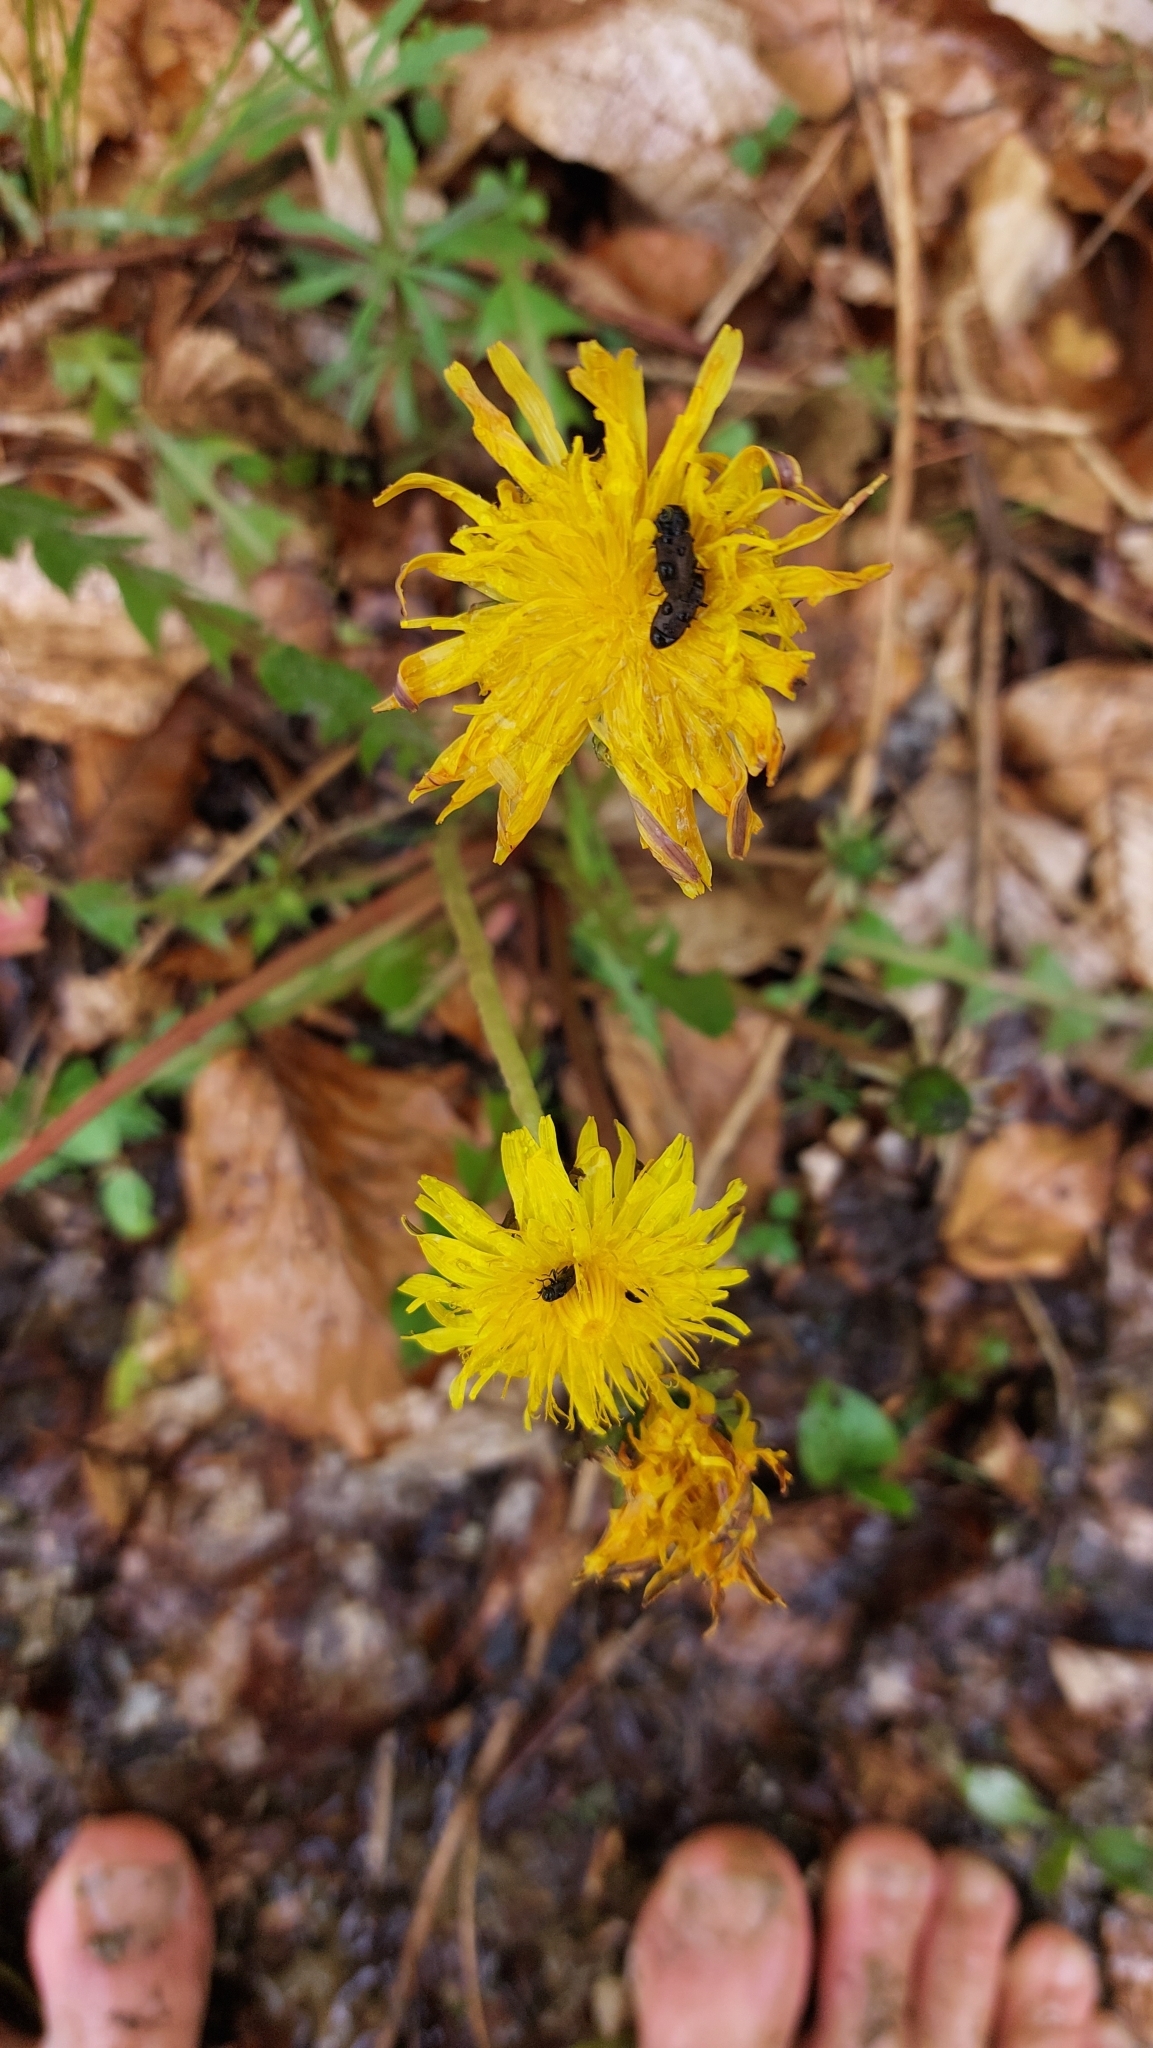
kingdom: Plantae
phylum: Tracheophyta
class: Magnoliopsida
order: Asterales
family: Asteraceae
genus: Taraxacum
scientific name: Taraxacum
